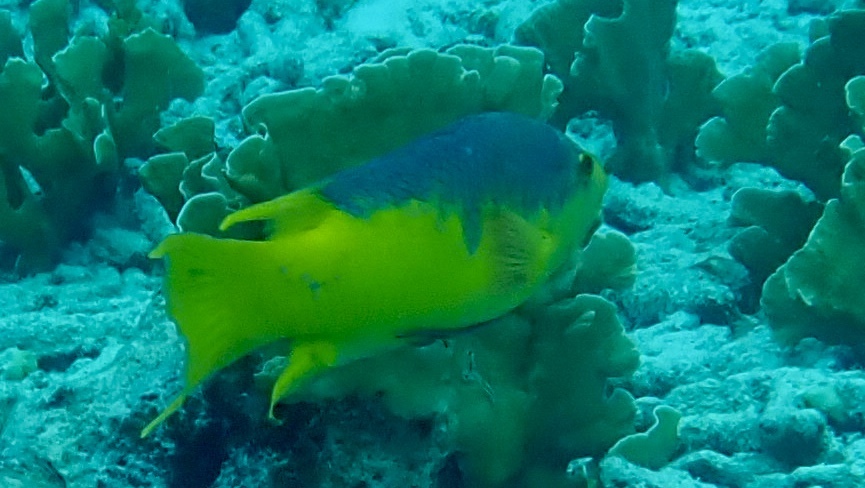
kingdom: Animalia
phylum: Chordata
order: Perciformes
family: Labridae
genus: Bodianus
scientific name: Bodianus rufus
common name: Spanish hogfish
